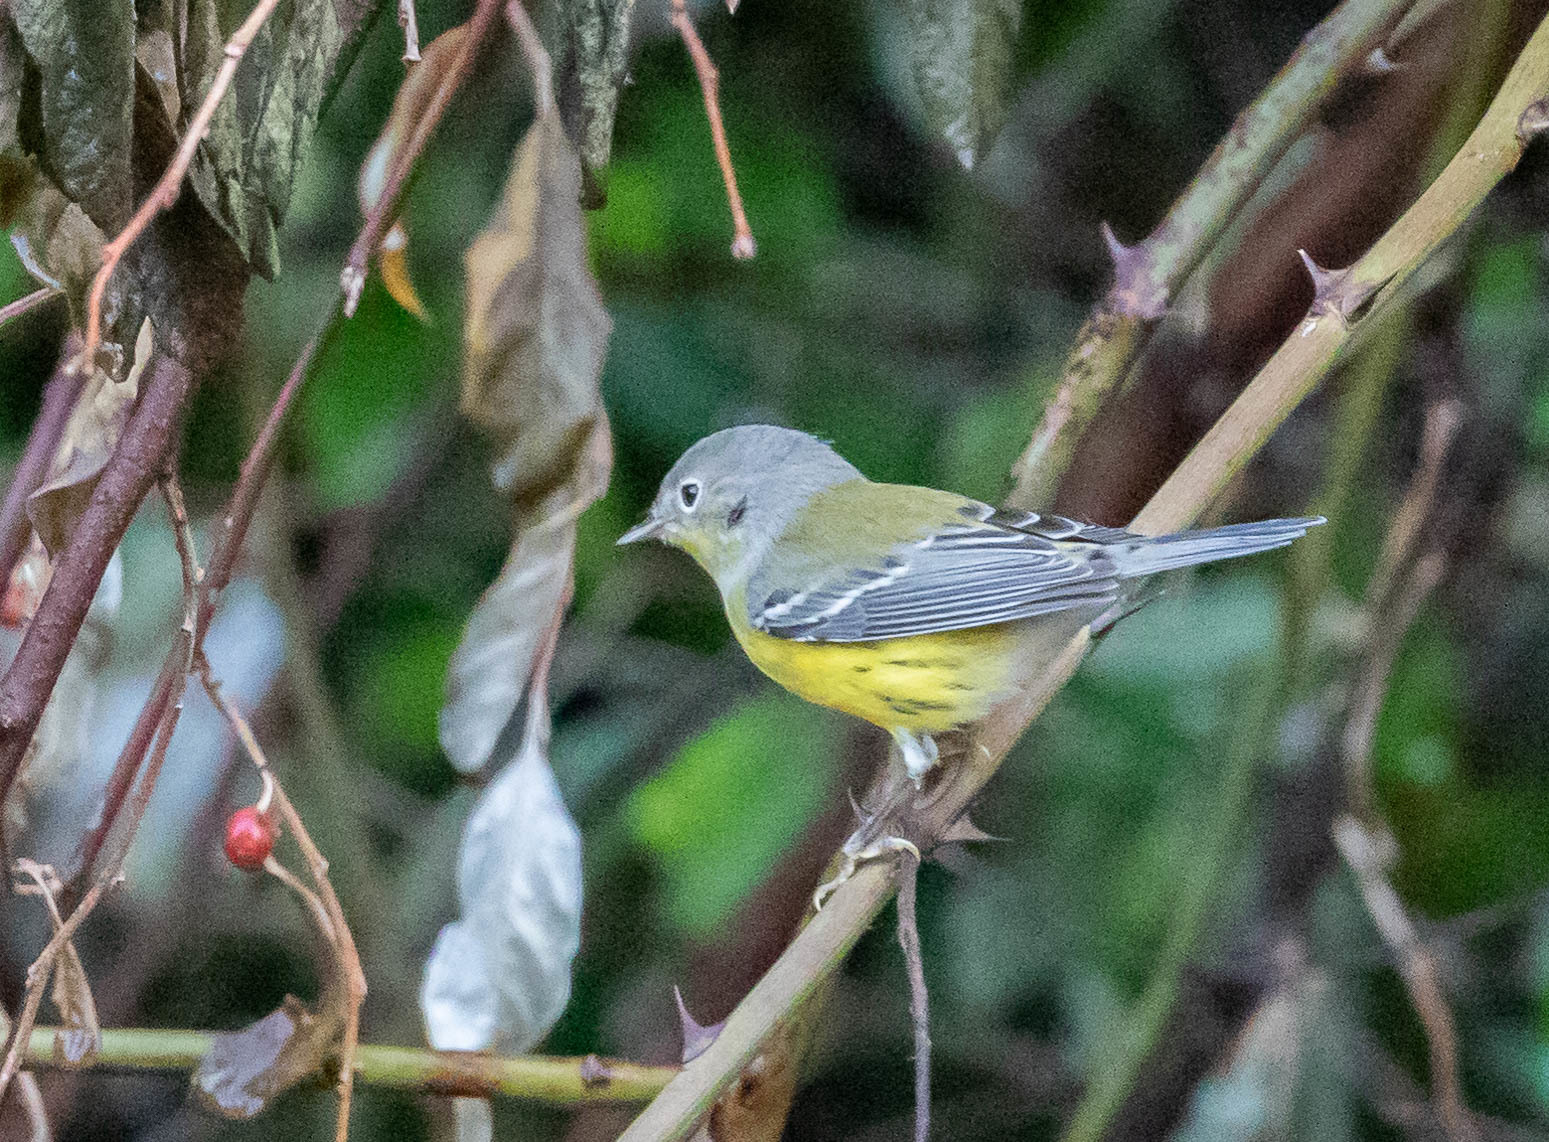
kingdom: Animalia
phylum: Chordata
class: Aves
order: Passeriformes
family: Parulidae
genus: Setophaga
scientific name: Setophaga magnolia
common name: Magnolia warbler
